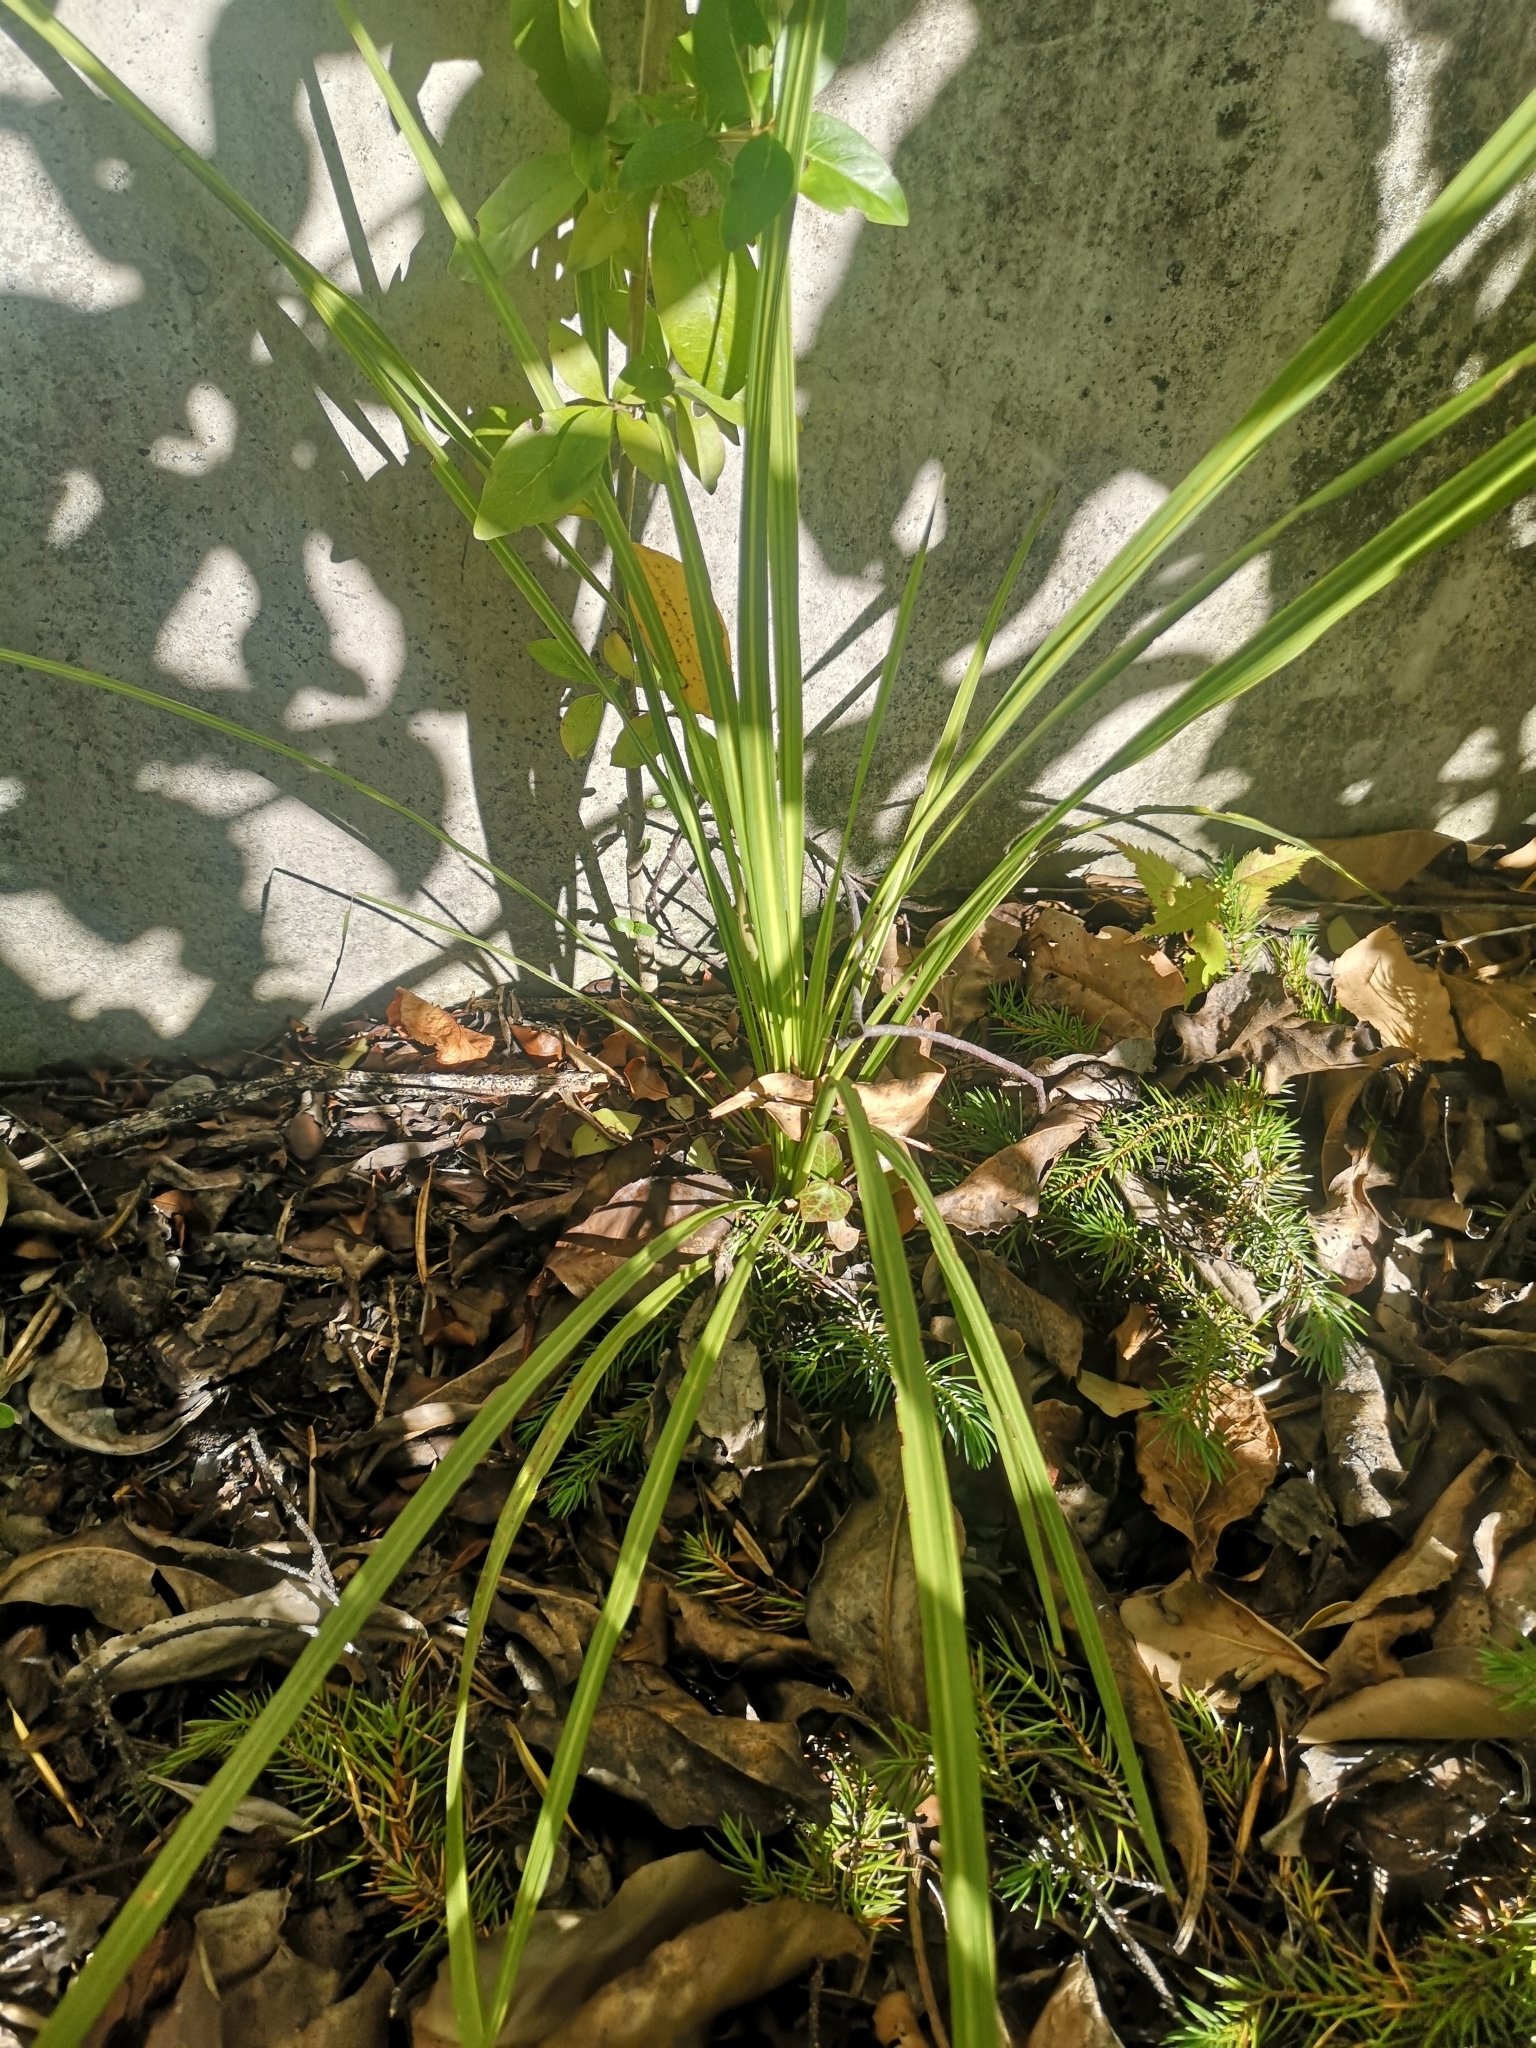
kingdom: Plantae
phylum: Tracheophyta
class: Liliopsida
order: Asparagales
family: Asparagaceae
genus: Cordyline
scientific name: Cordyline australis
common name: Cabbage-palm
